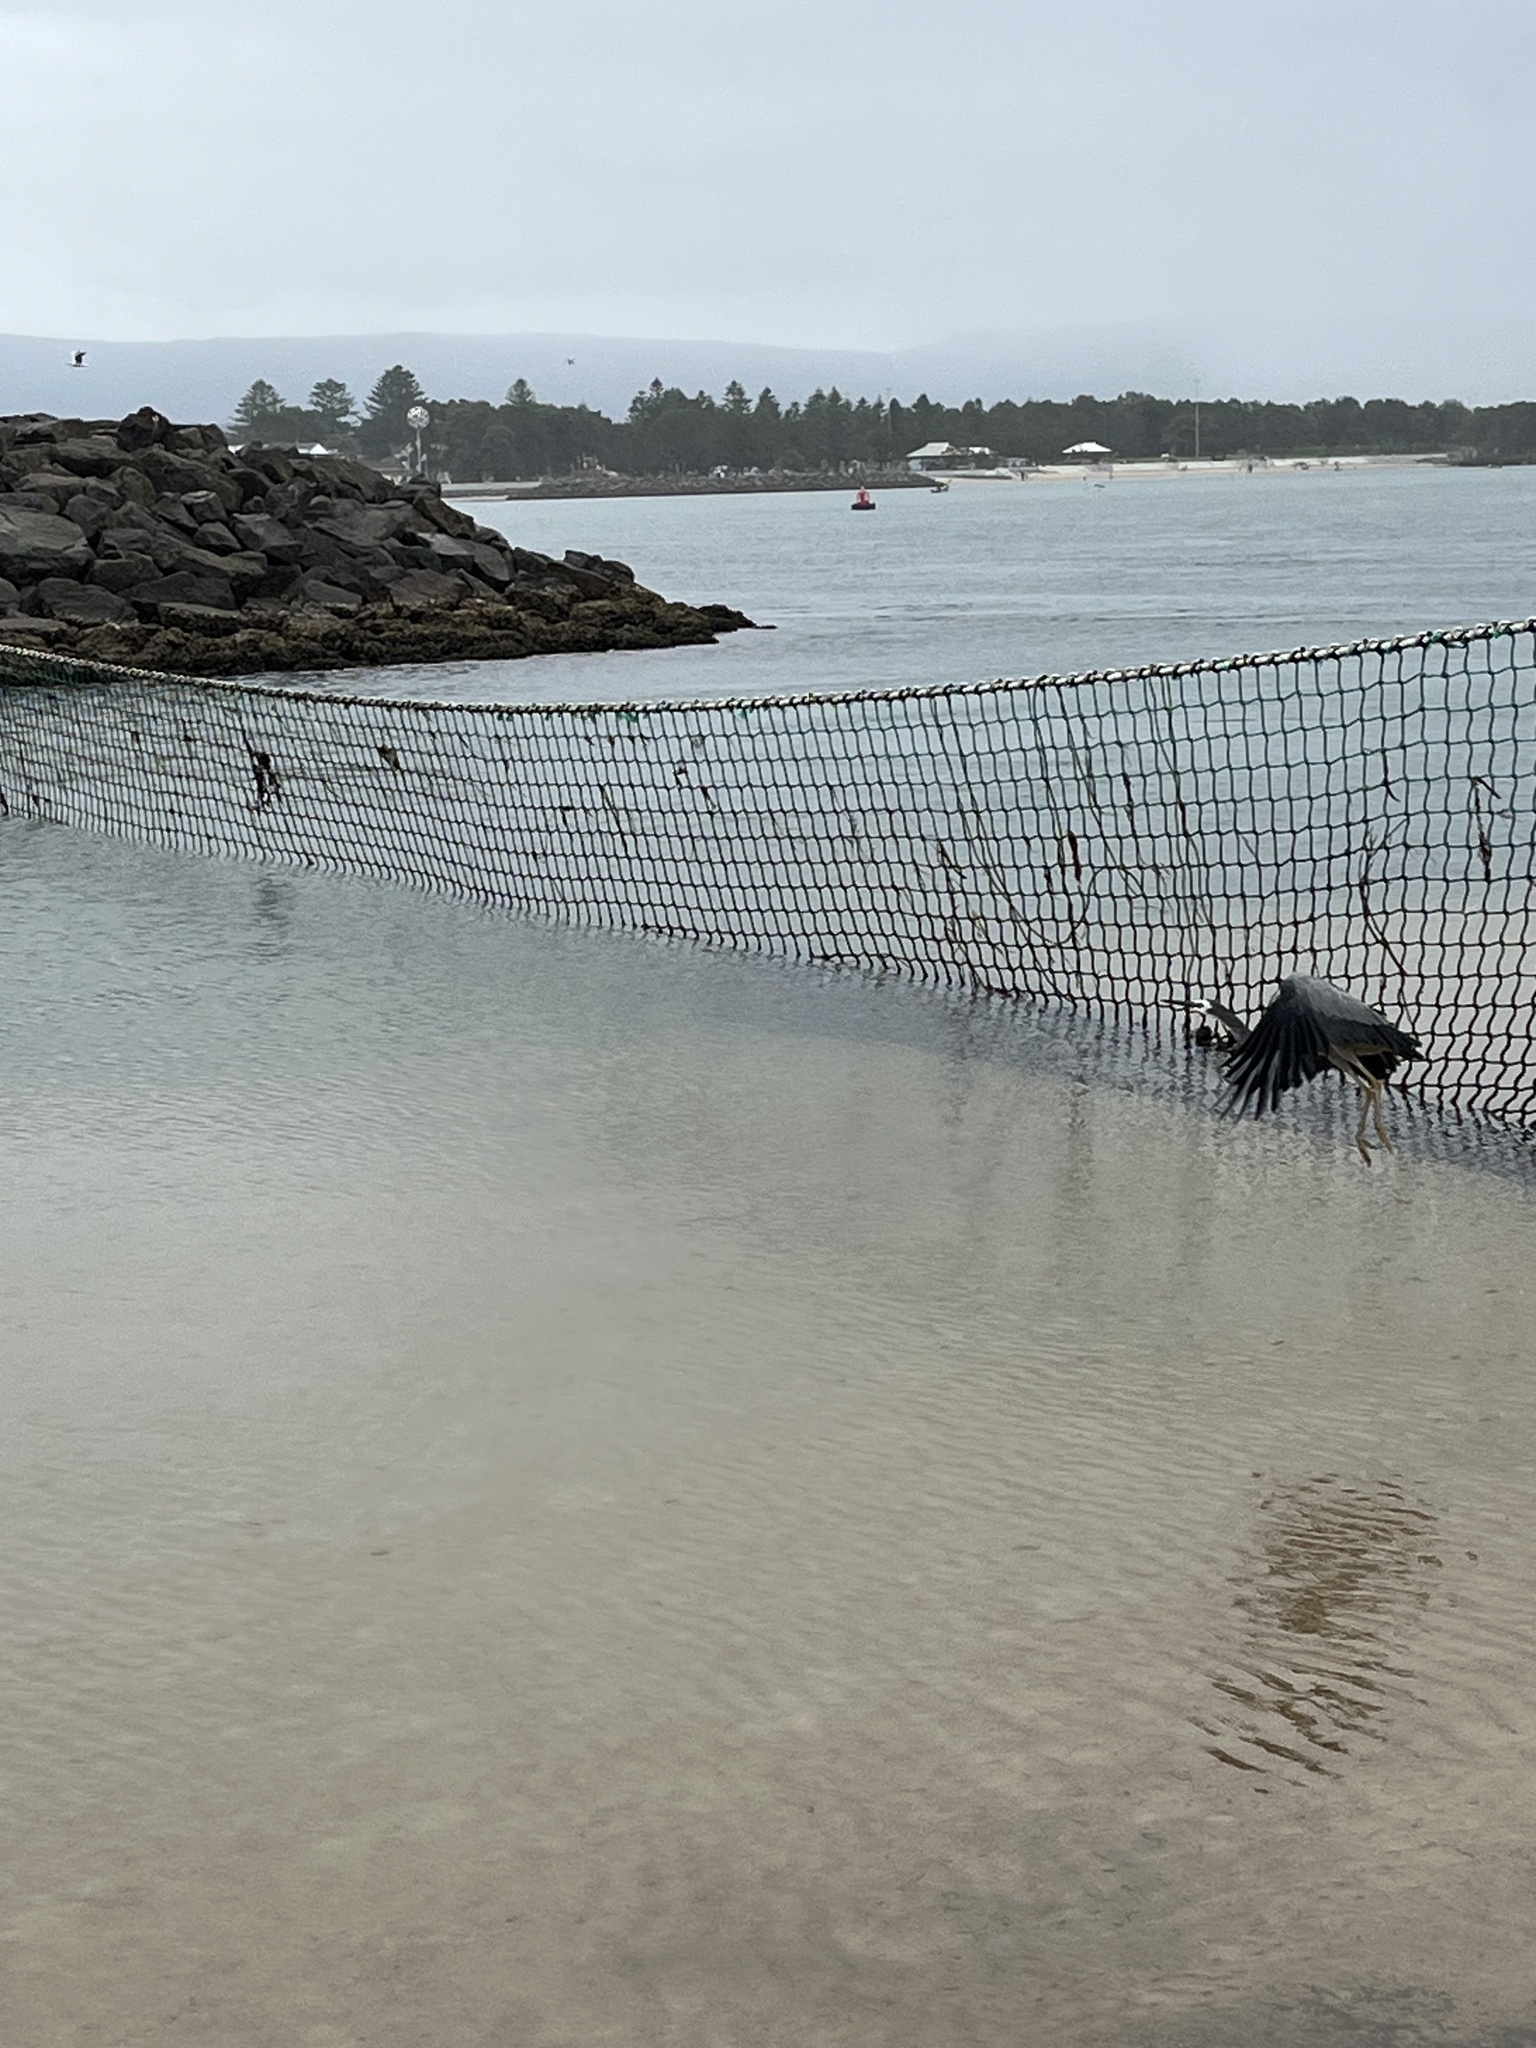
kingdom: Animalia
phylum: Chordata
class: Aves
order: Pelecaniformes
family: Ardeidae
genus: Egretta
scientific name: Egretta novaehollandiae
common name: White-faced heron
